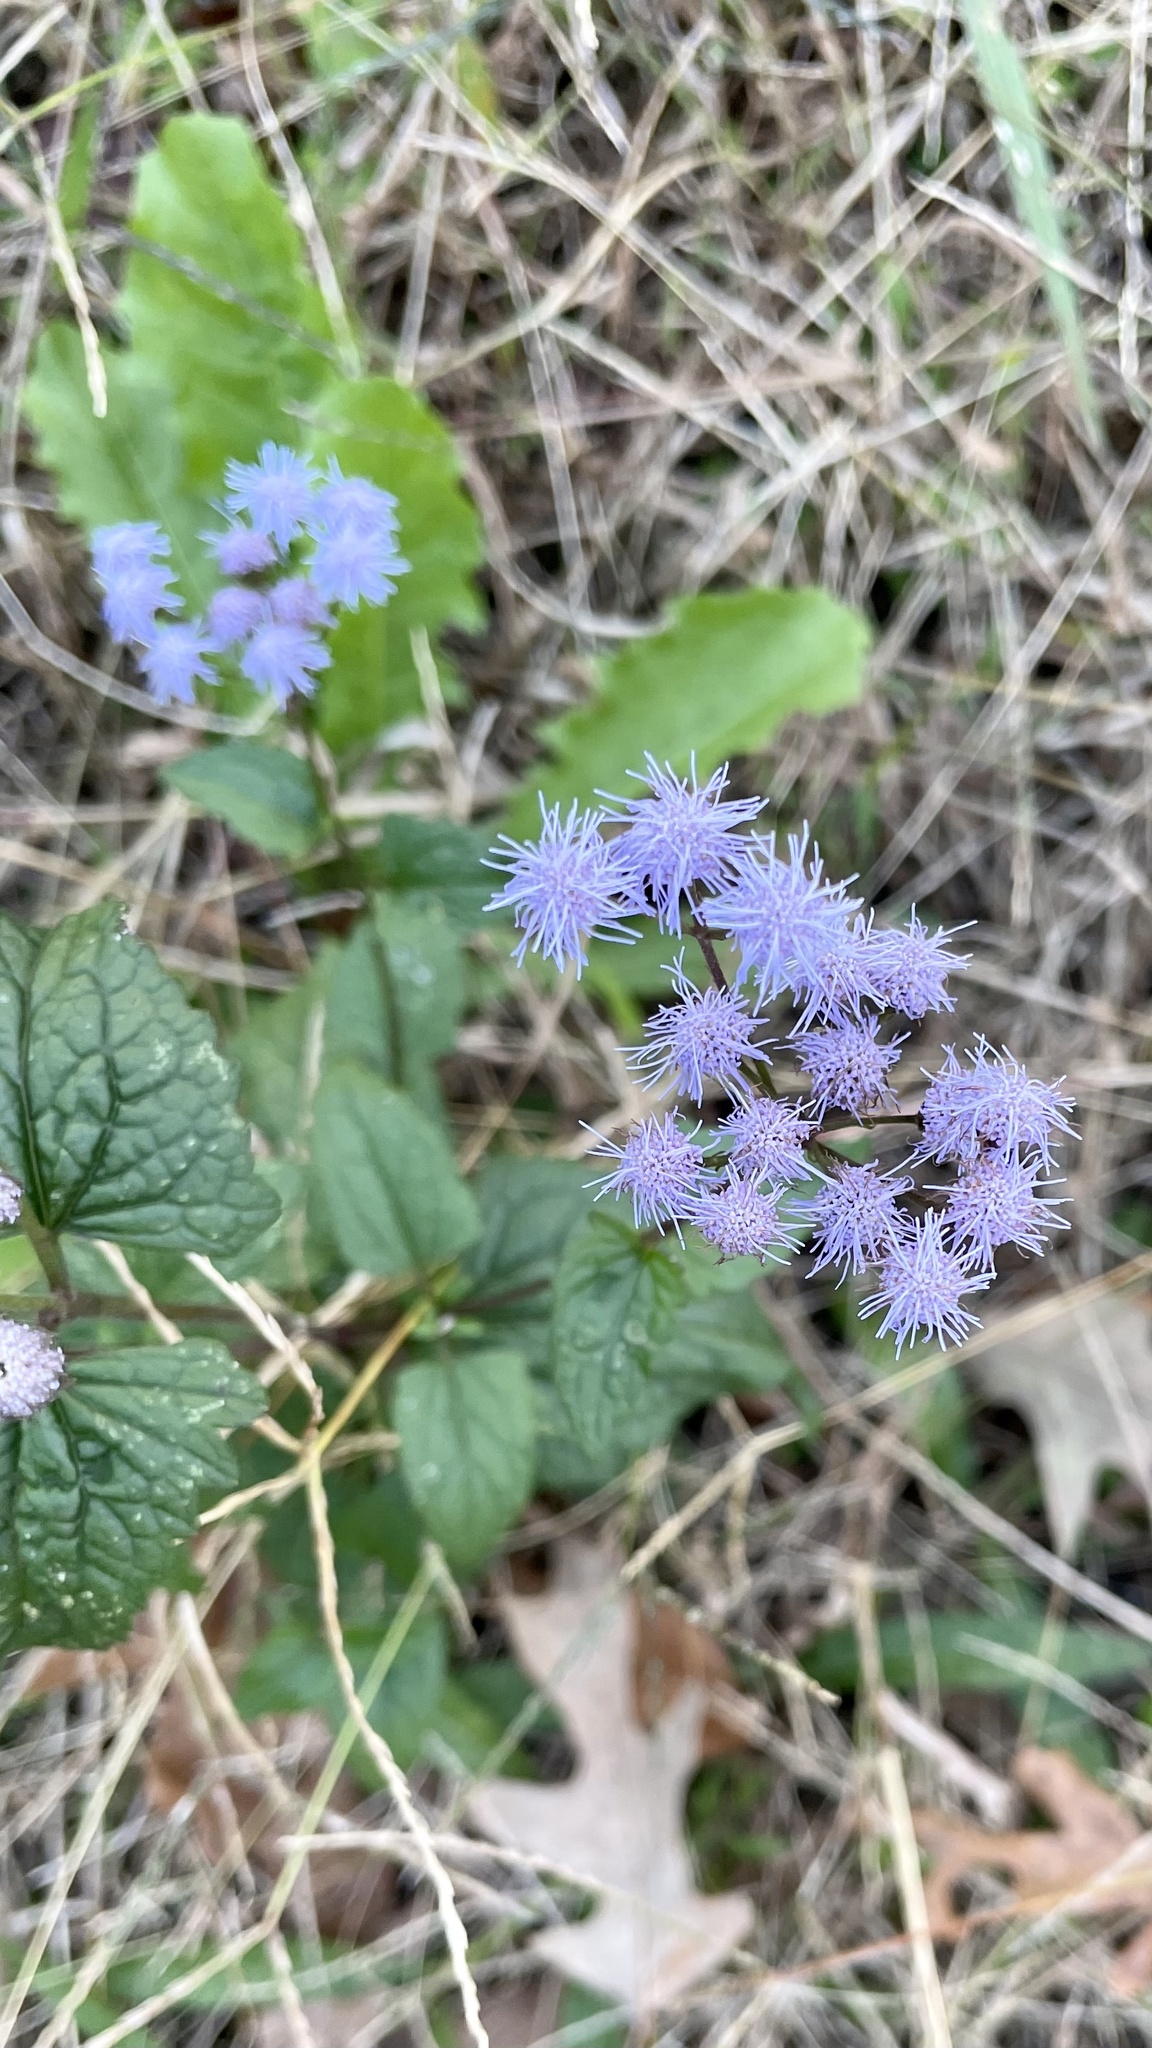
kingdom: Plantae
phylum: Tracheophyta
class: Magnoliopsida
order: Asterales
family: Asteraceae
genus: Conoclinium
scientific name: Conoclinium coelestinum
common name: Blue mistflower
